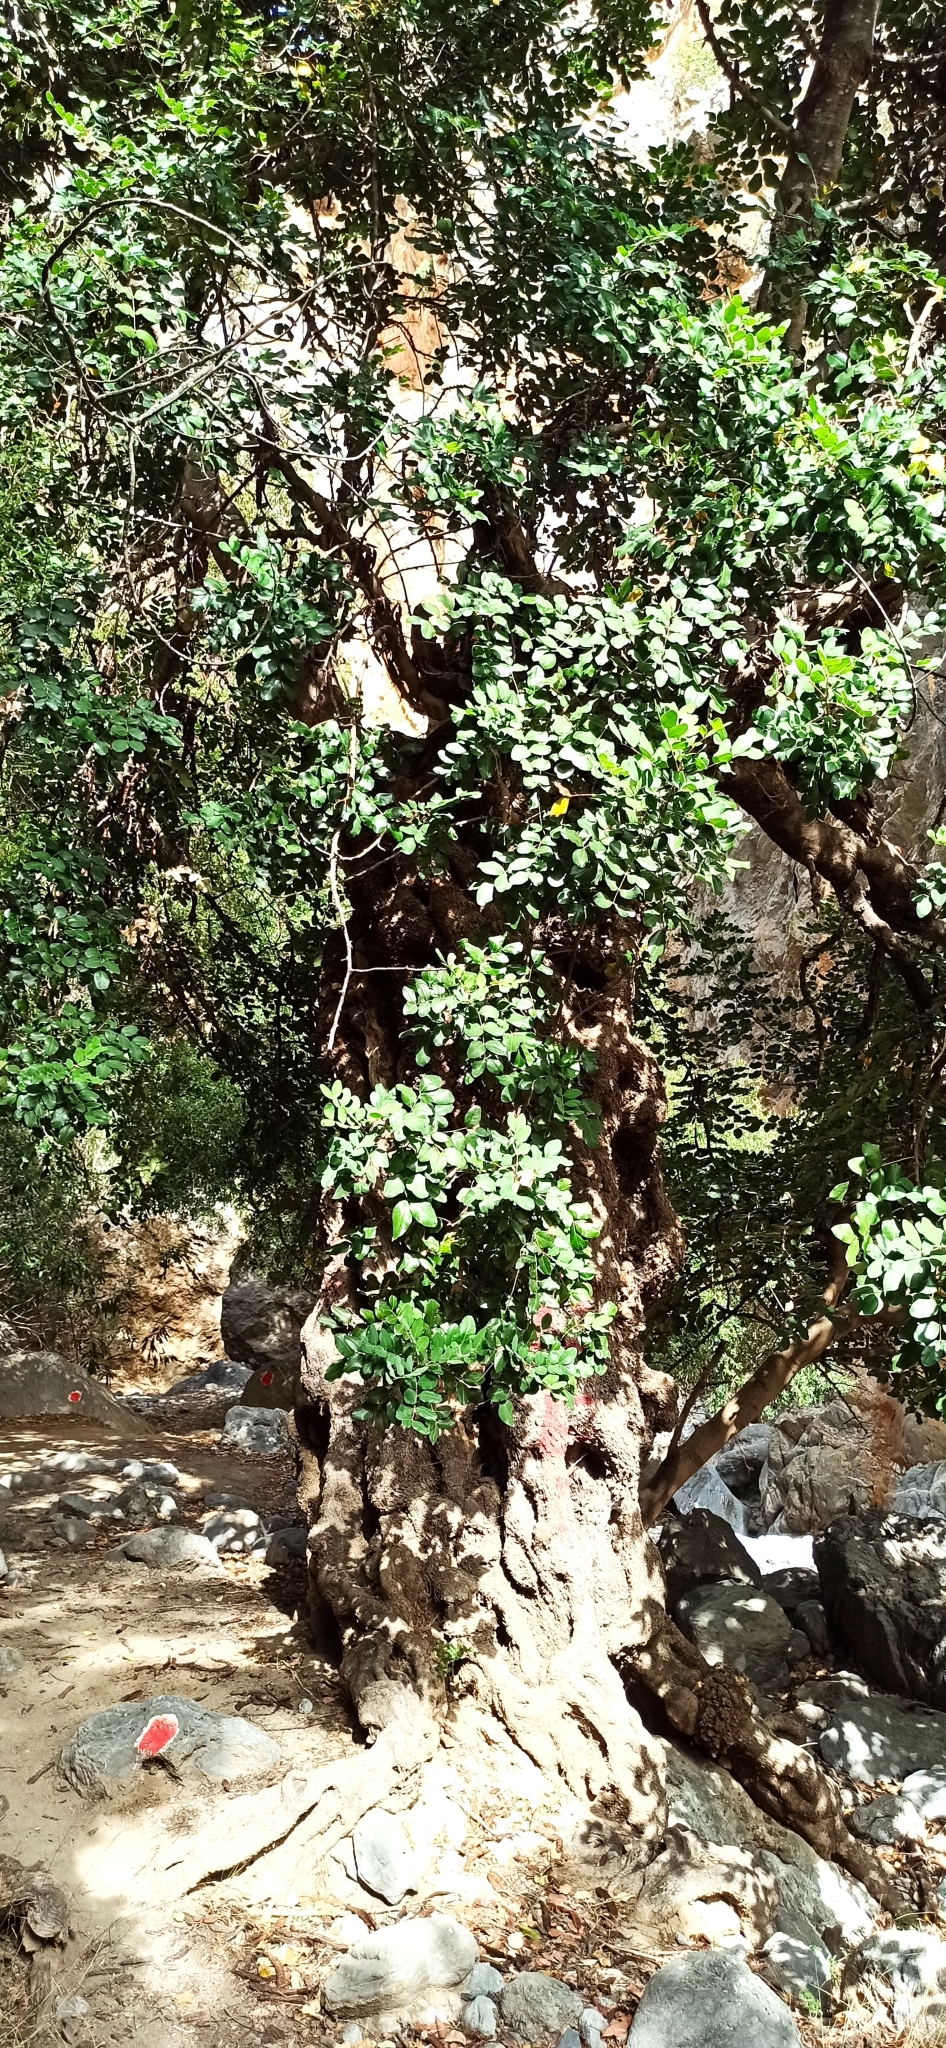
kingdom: Plantae
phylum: Tracheophyta
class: Magnoliopsida
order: Fabales
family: Fabaceae
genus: Ceratonia
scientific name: Ceratonia siliqua
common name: Carob
